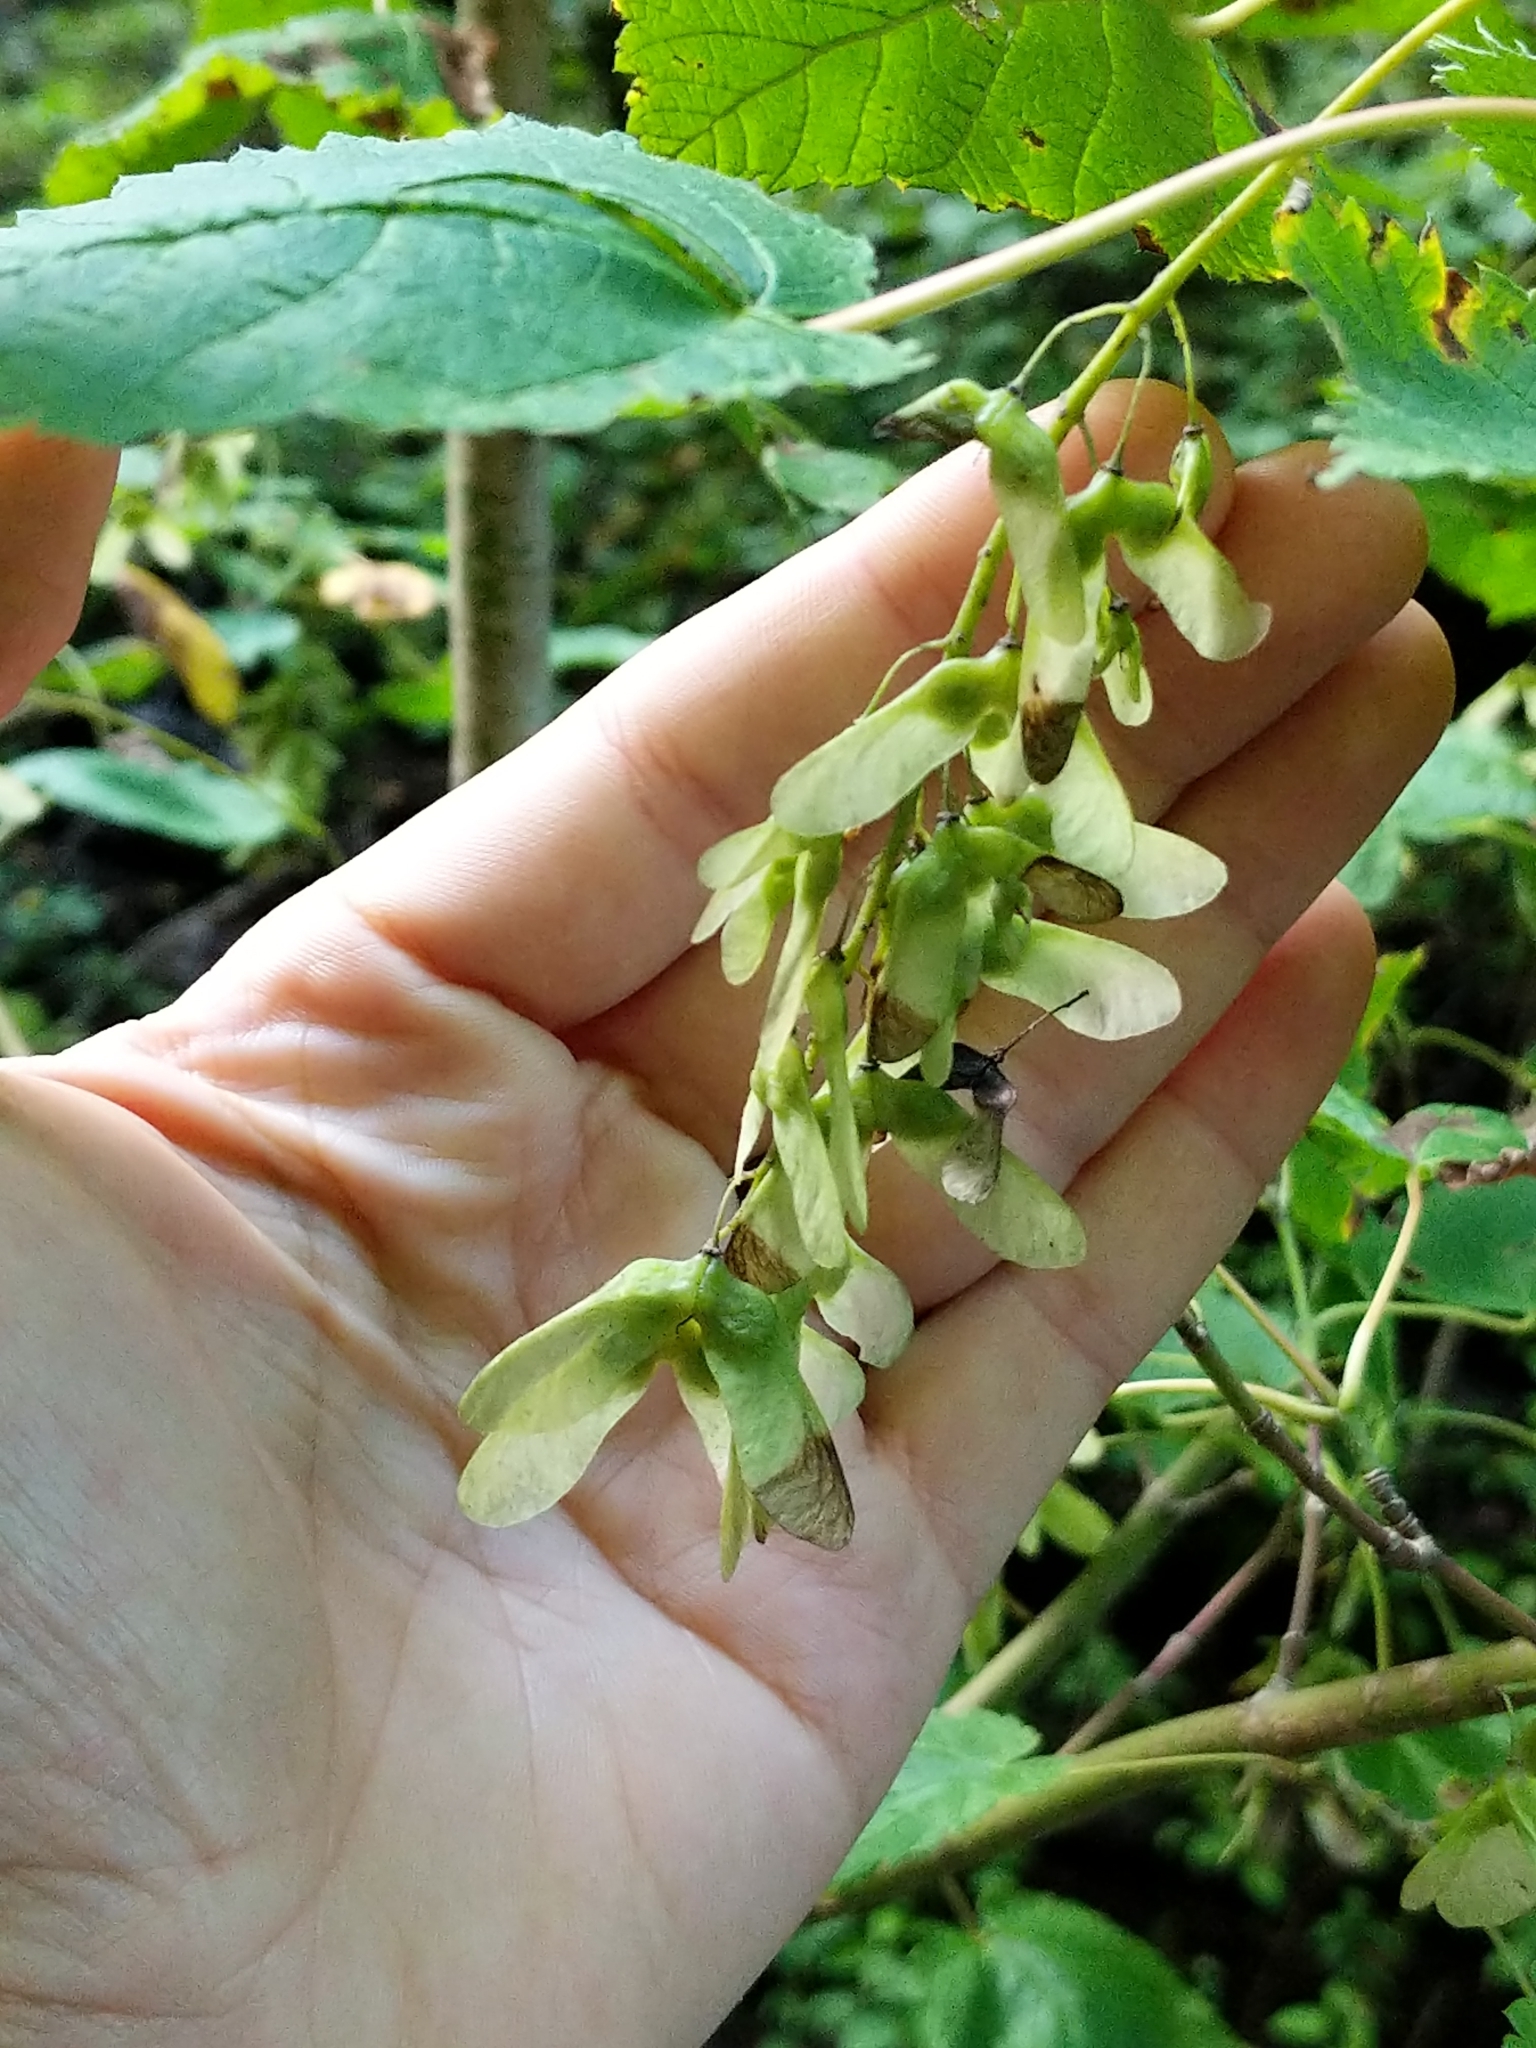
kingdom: Plantae
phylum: Tracheophyta
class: Magnoliopsida
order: Sapindales
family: Sapindaceae
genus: Acer
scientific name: Acer spicatum
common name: Mountain maple
